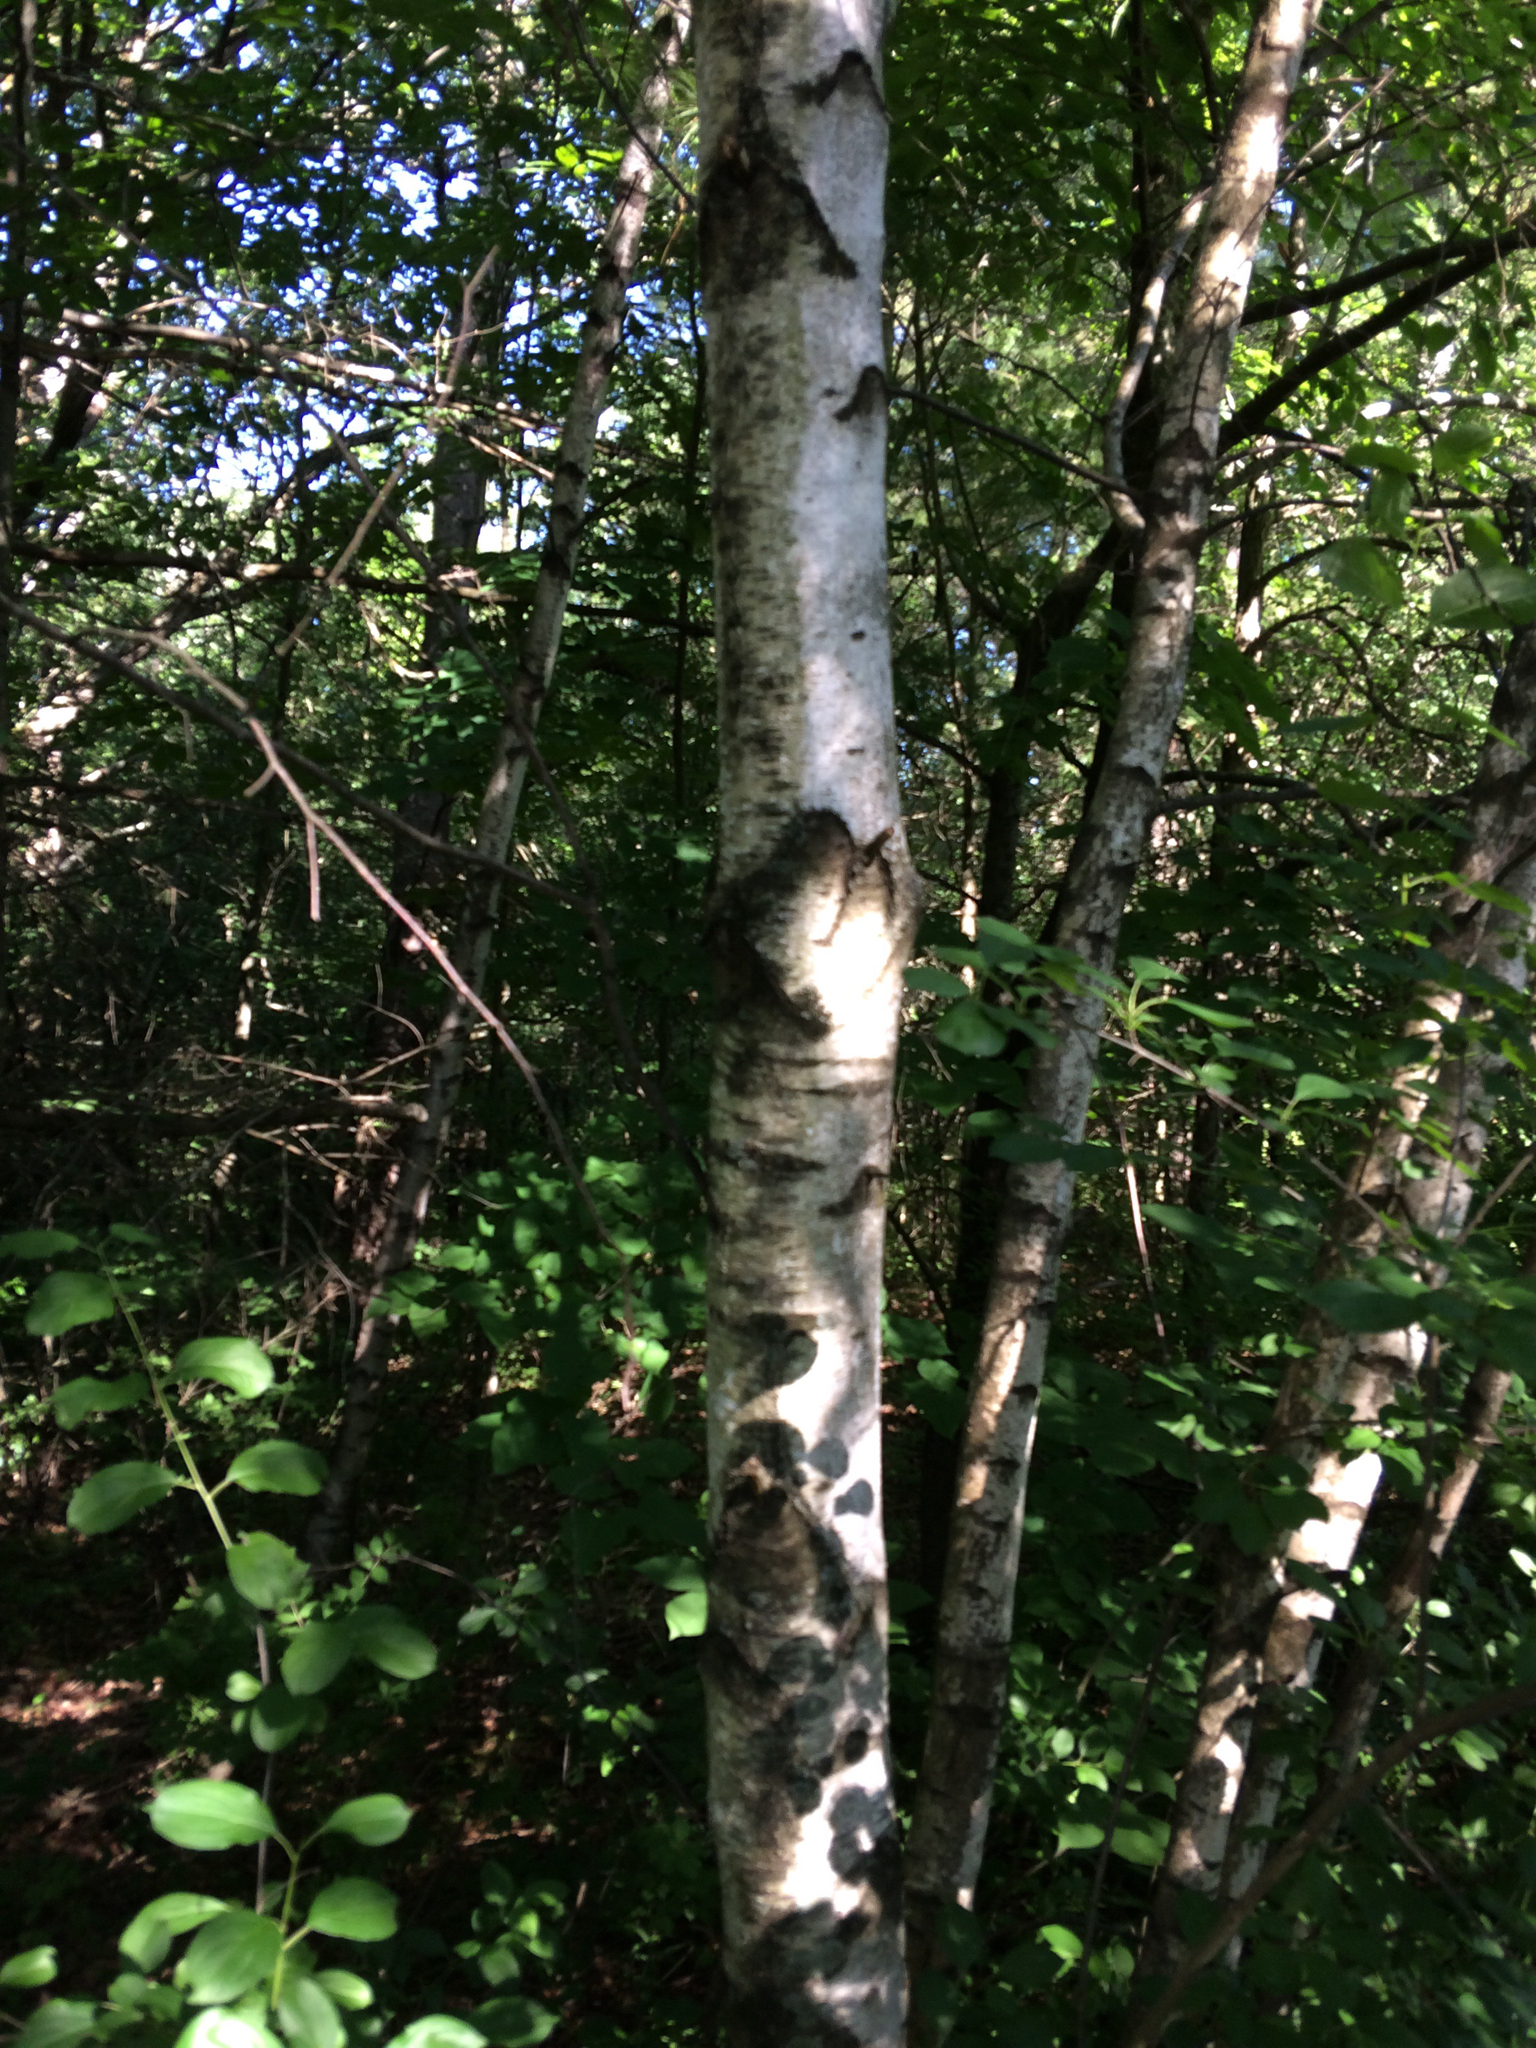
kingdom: Plantae
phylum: Tracheophyta
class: Magnoliopsida
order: Fagales
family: Betulaceae
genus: Betula
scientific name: Betula populifolia
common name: Fire birch
